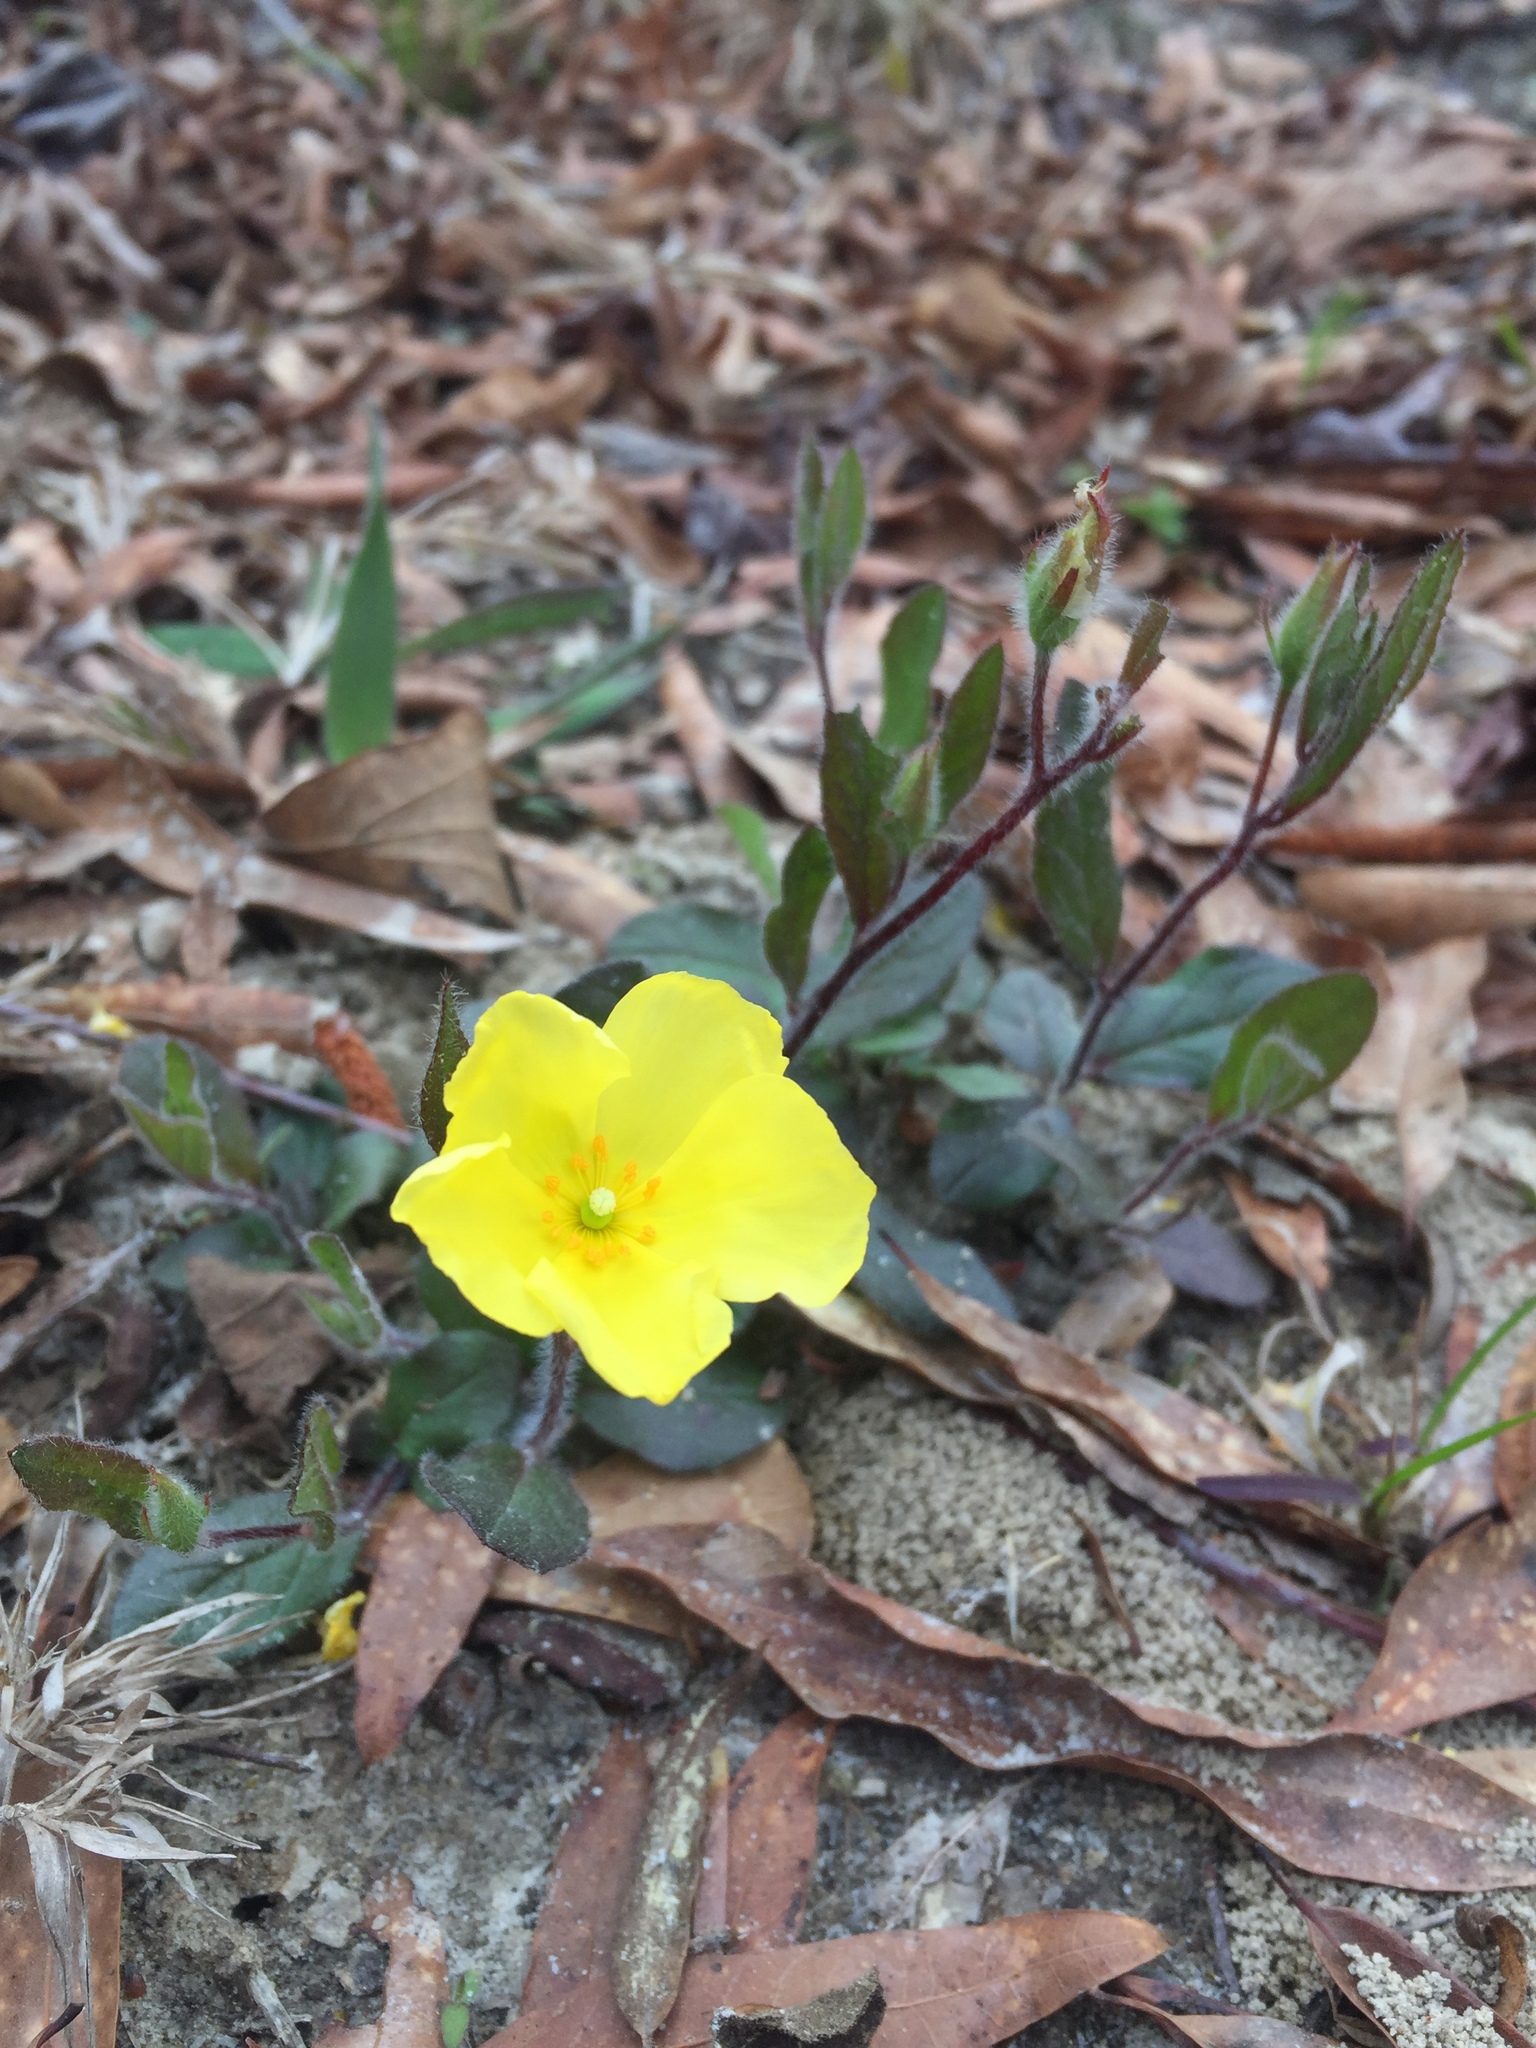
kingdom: Plantae
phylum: Tracheophyta
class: Magnoliopsida
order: Malvales
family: Cistaceae
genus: Crocanthemum
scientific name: Crocanthemum carolinianum
